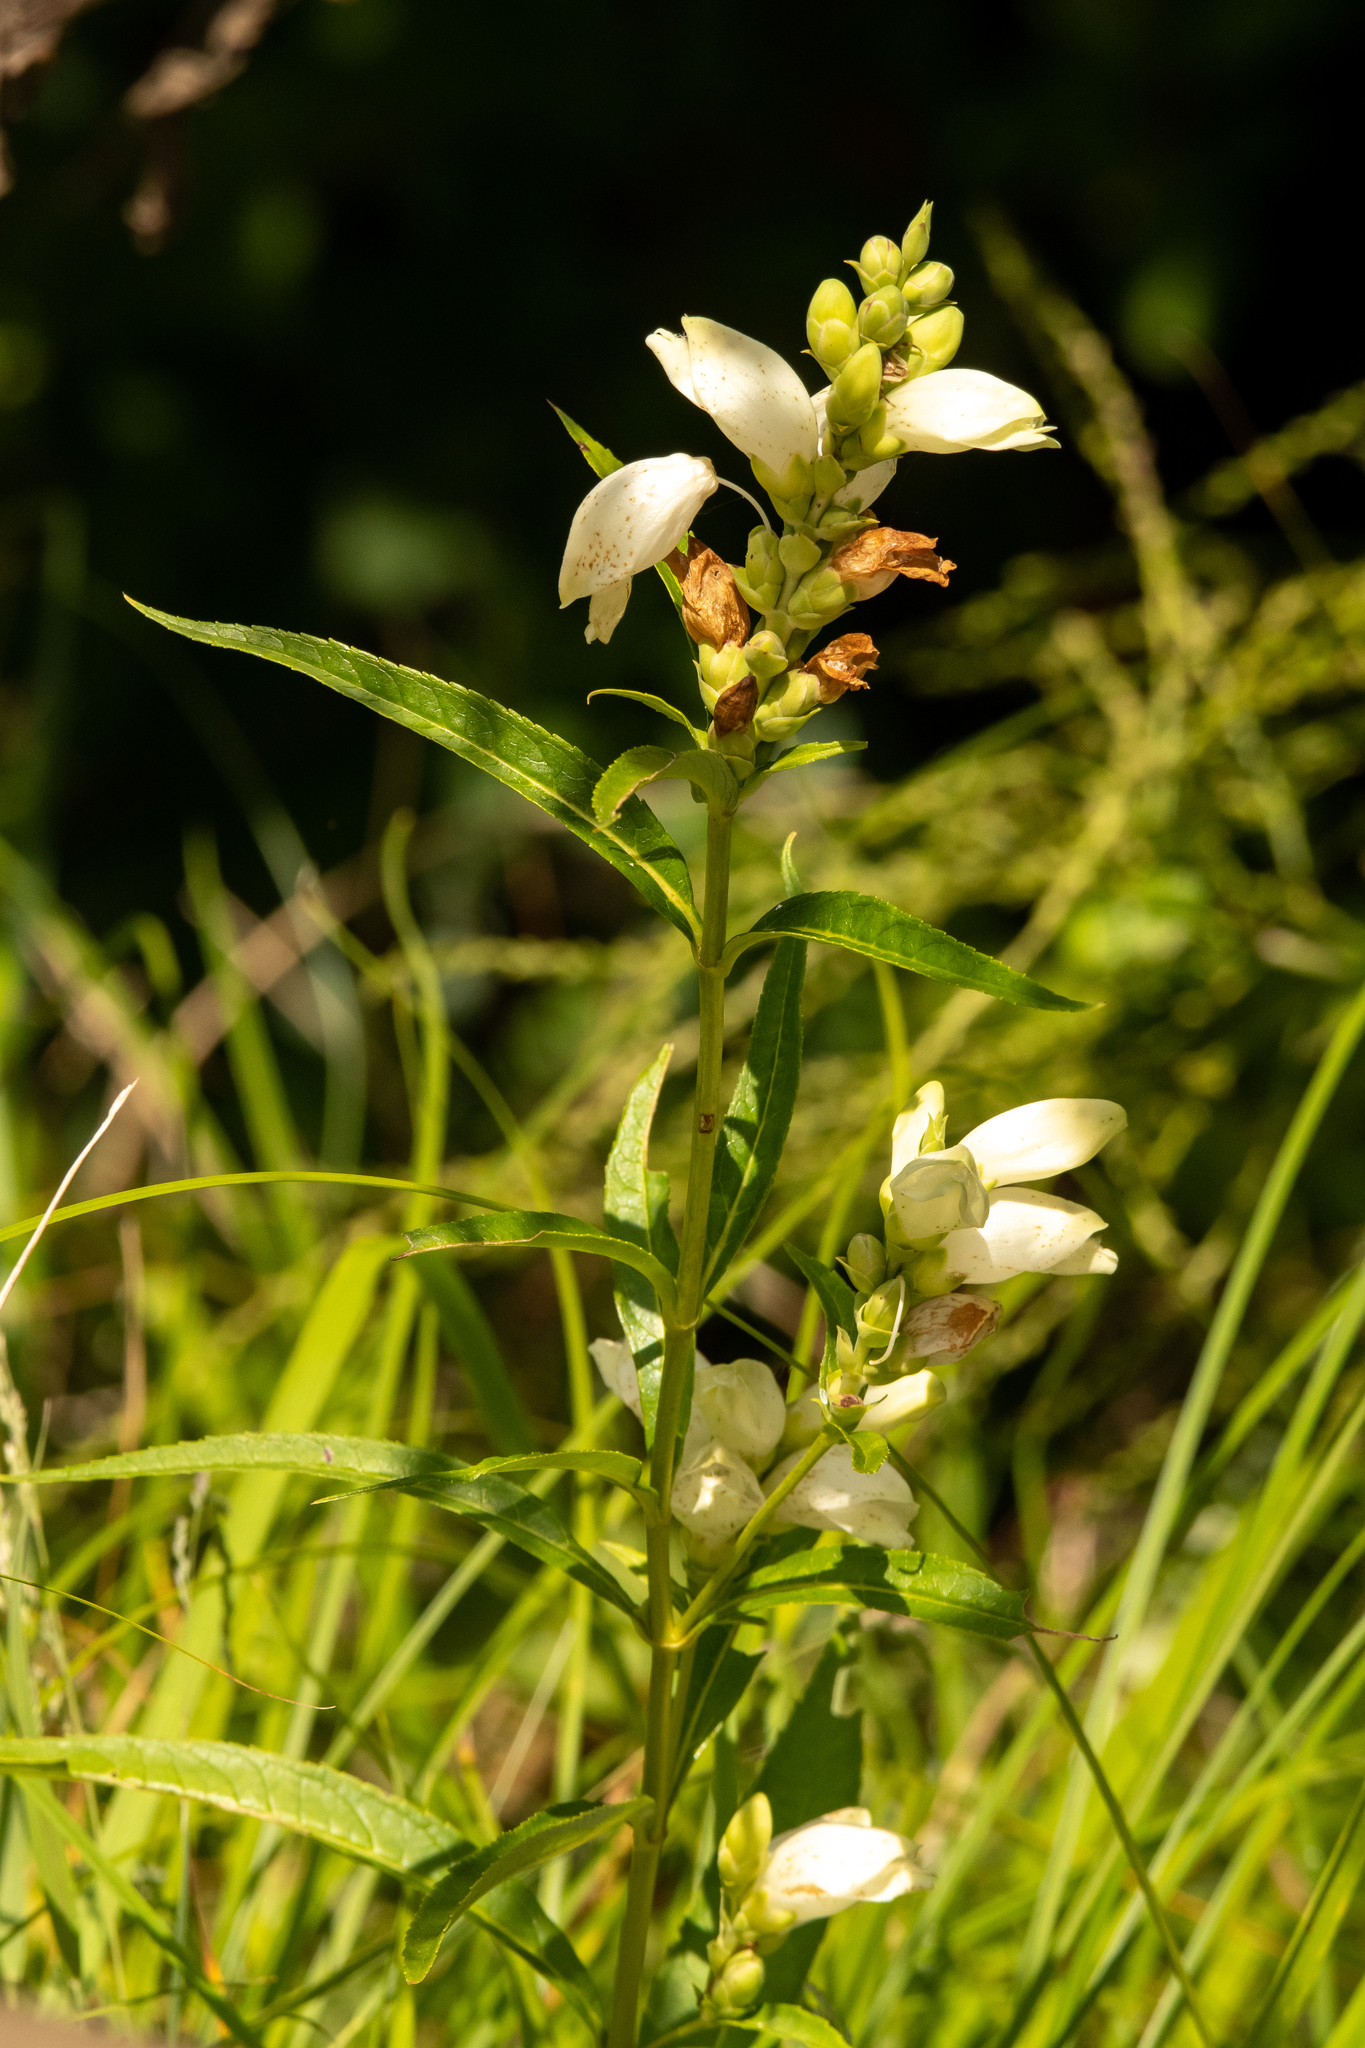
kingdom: Plantae
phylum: Tracheophyta
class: Magnoliopsida
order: Lamiales
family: Plantaginaceae
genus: Chelone
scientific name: Chelone glabra
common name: Snakehead
